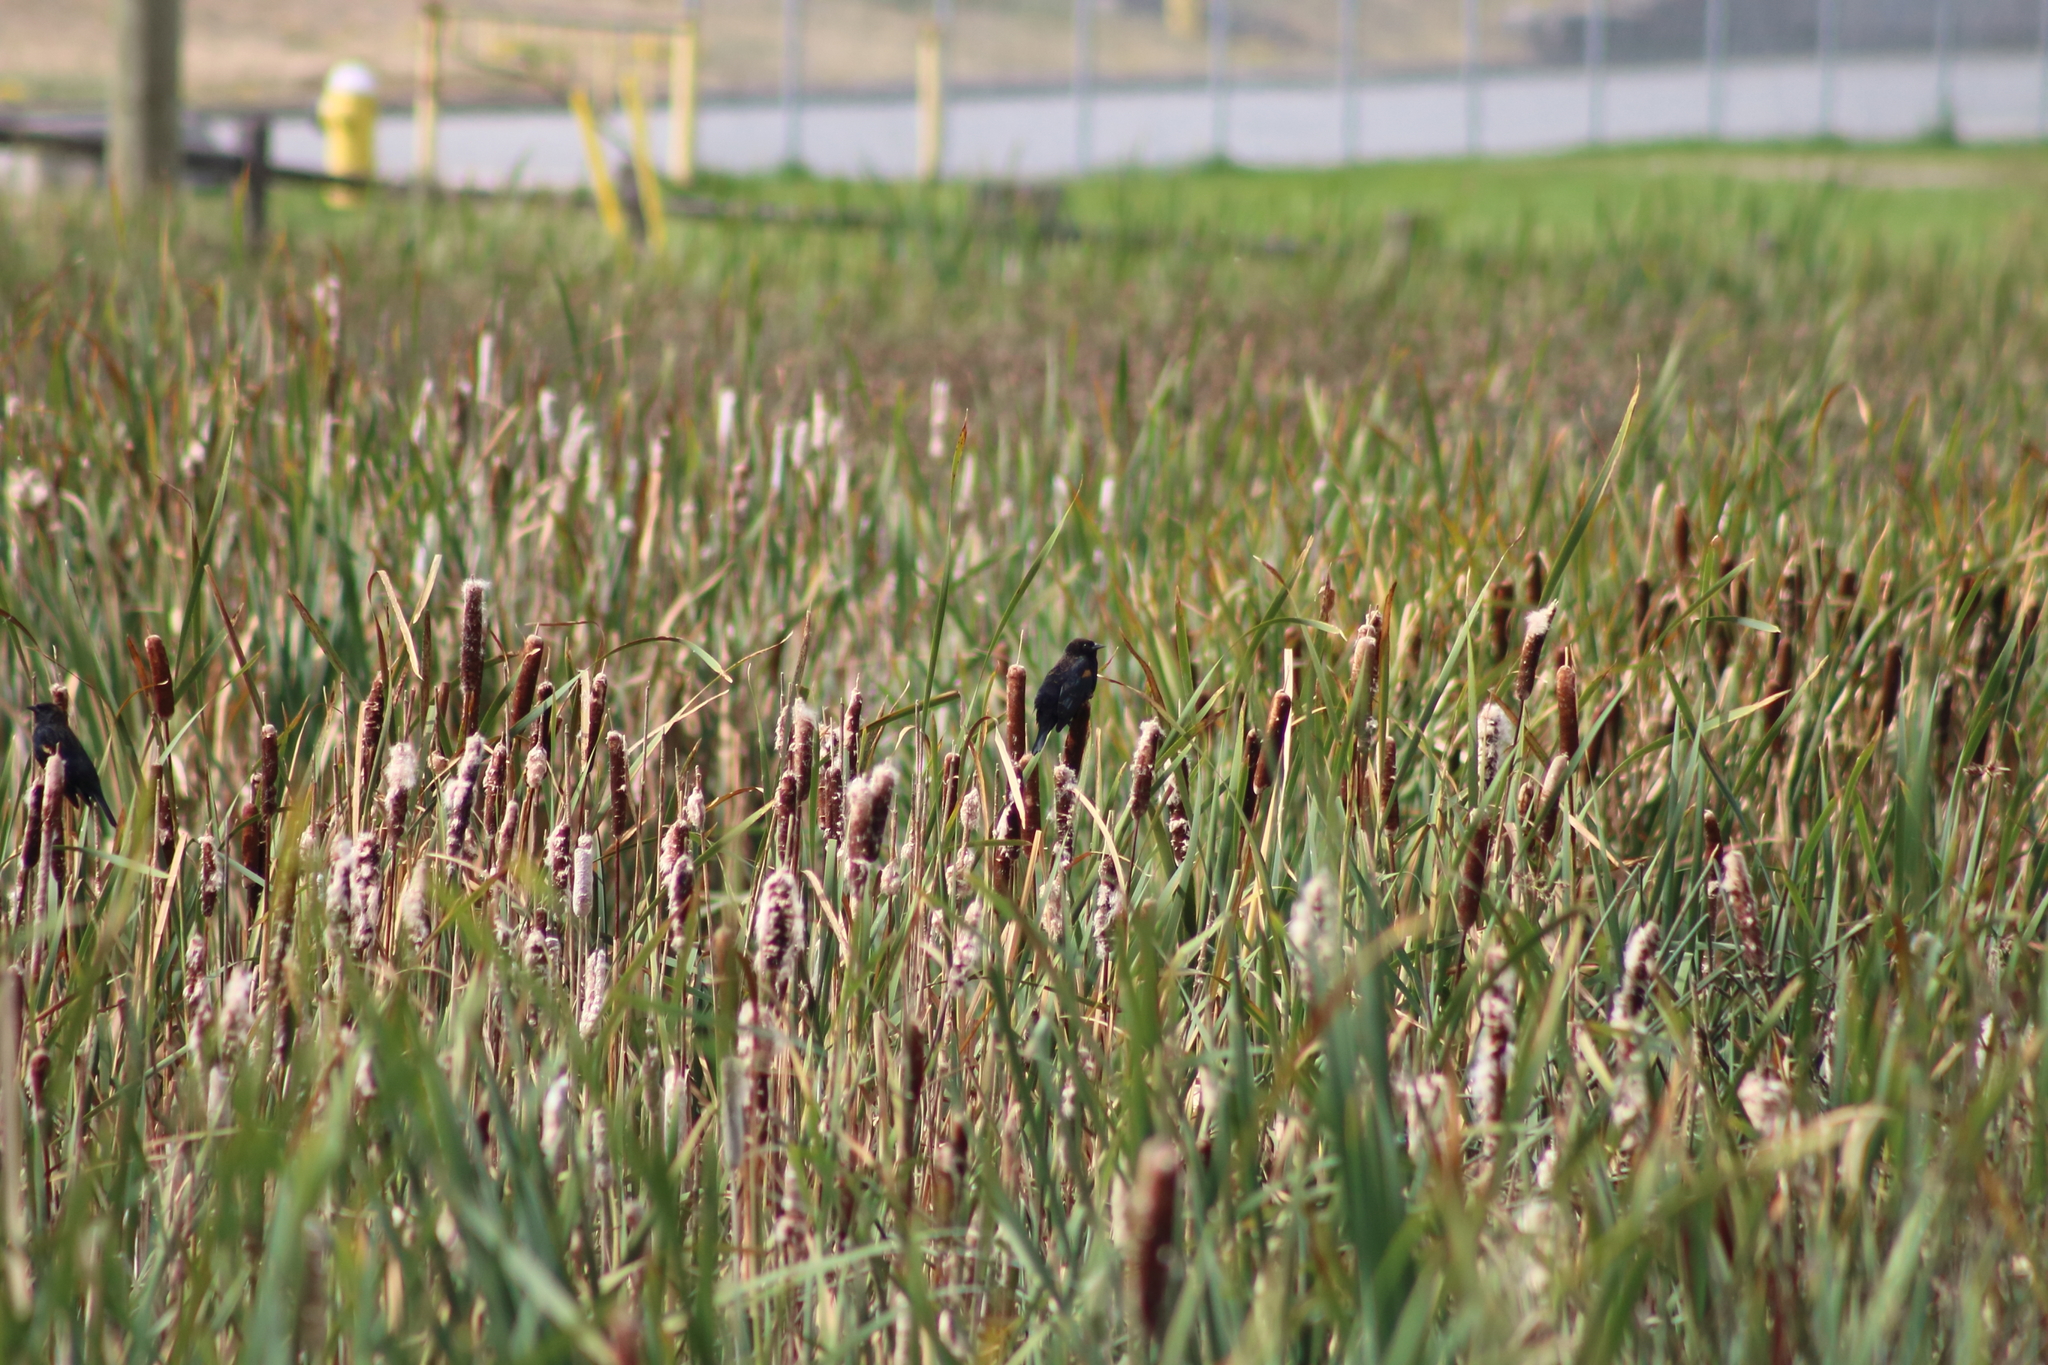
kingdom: Animalia
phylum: Chordata
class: Aves
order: Passeriformes
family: Icteridae
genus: Agelaius
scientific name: Agelaius phoeniceus
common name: Red-winged blackbird
